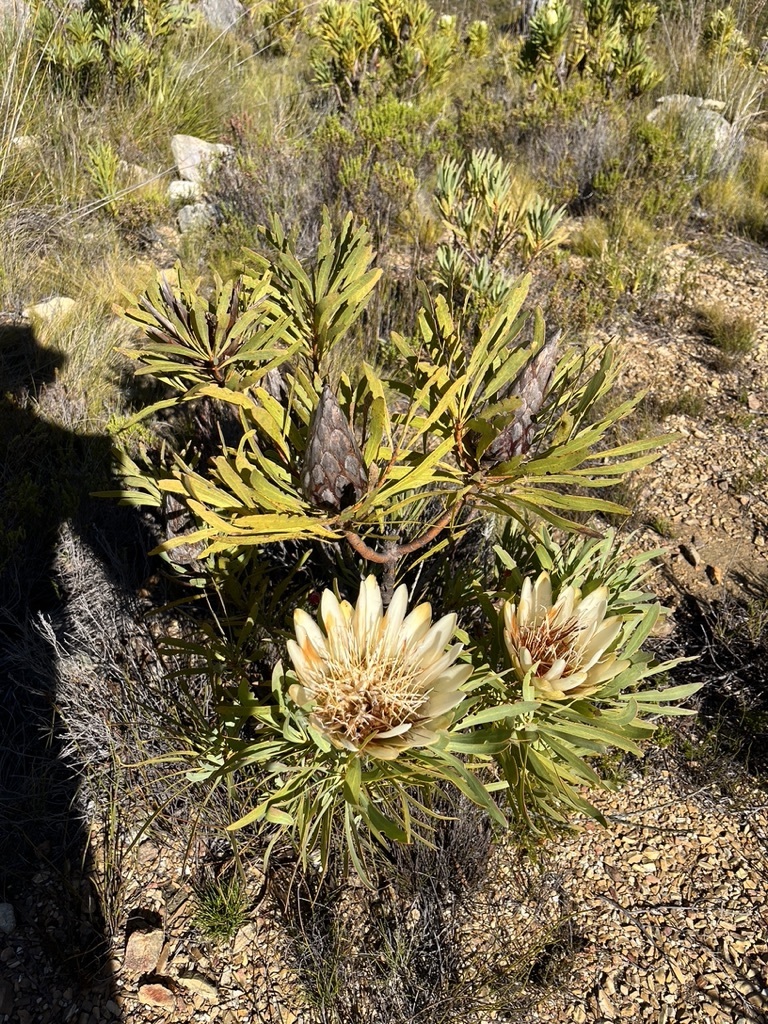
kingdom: Plantae
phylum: Tracheophyta
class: Magnoliopsida
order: Proteales
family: Proteaceae
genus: Protea
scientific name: Protea repens
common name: Sugarbush
